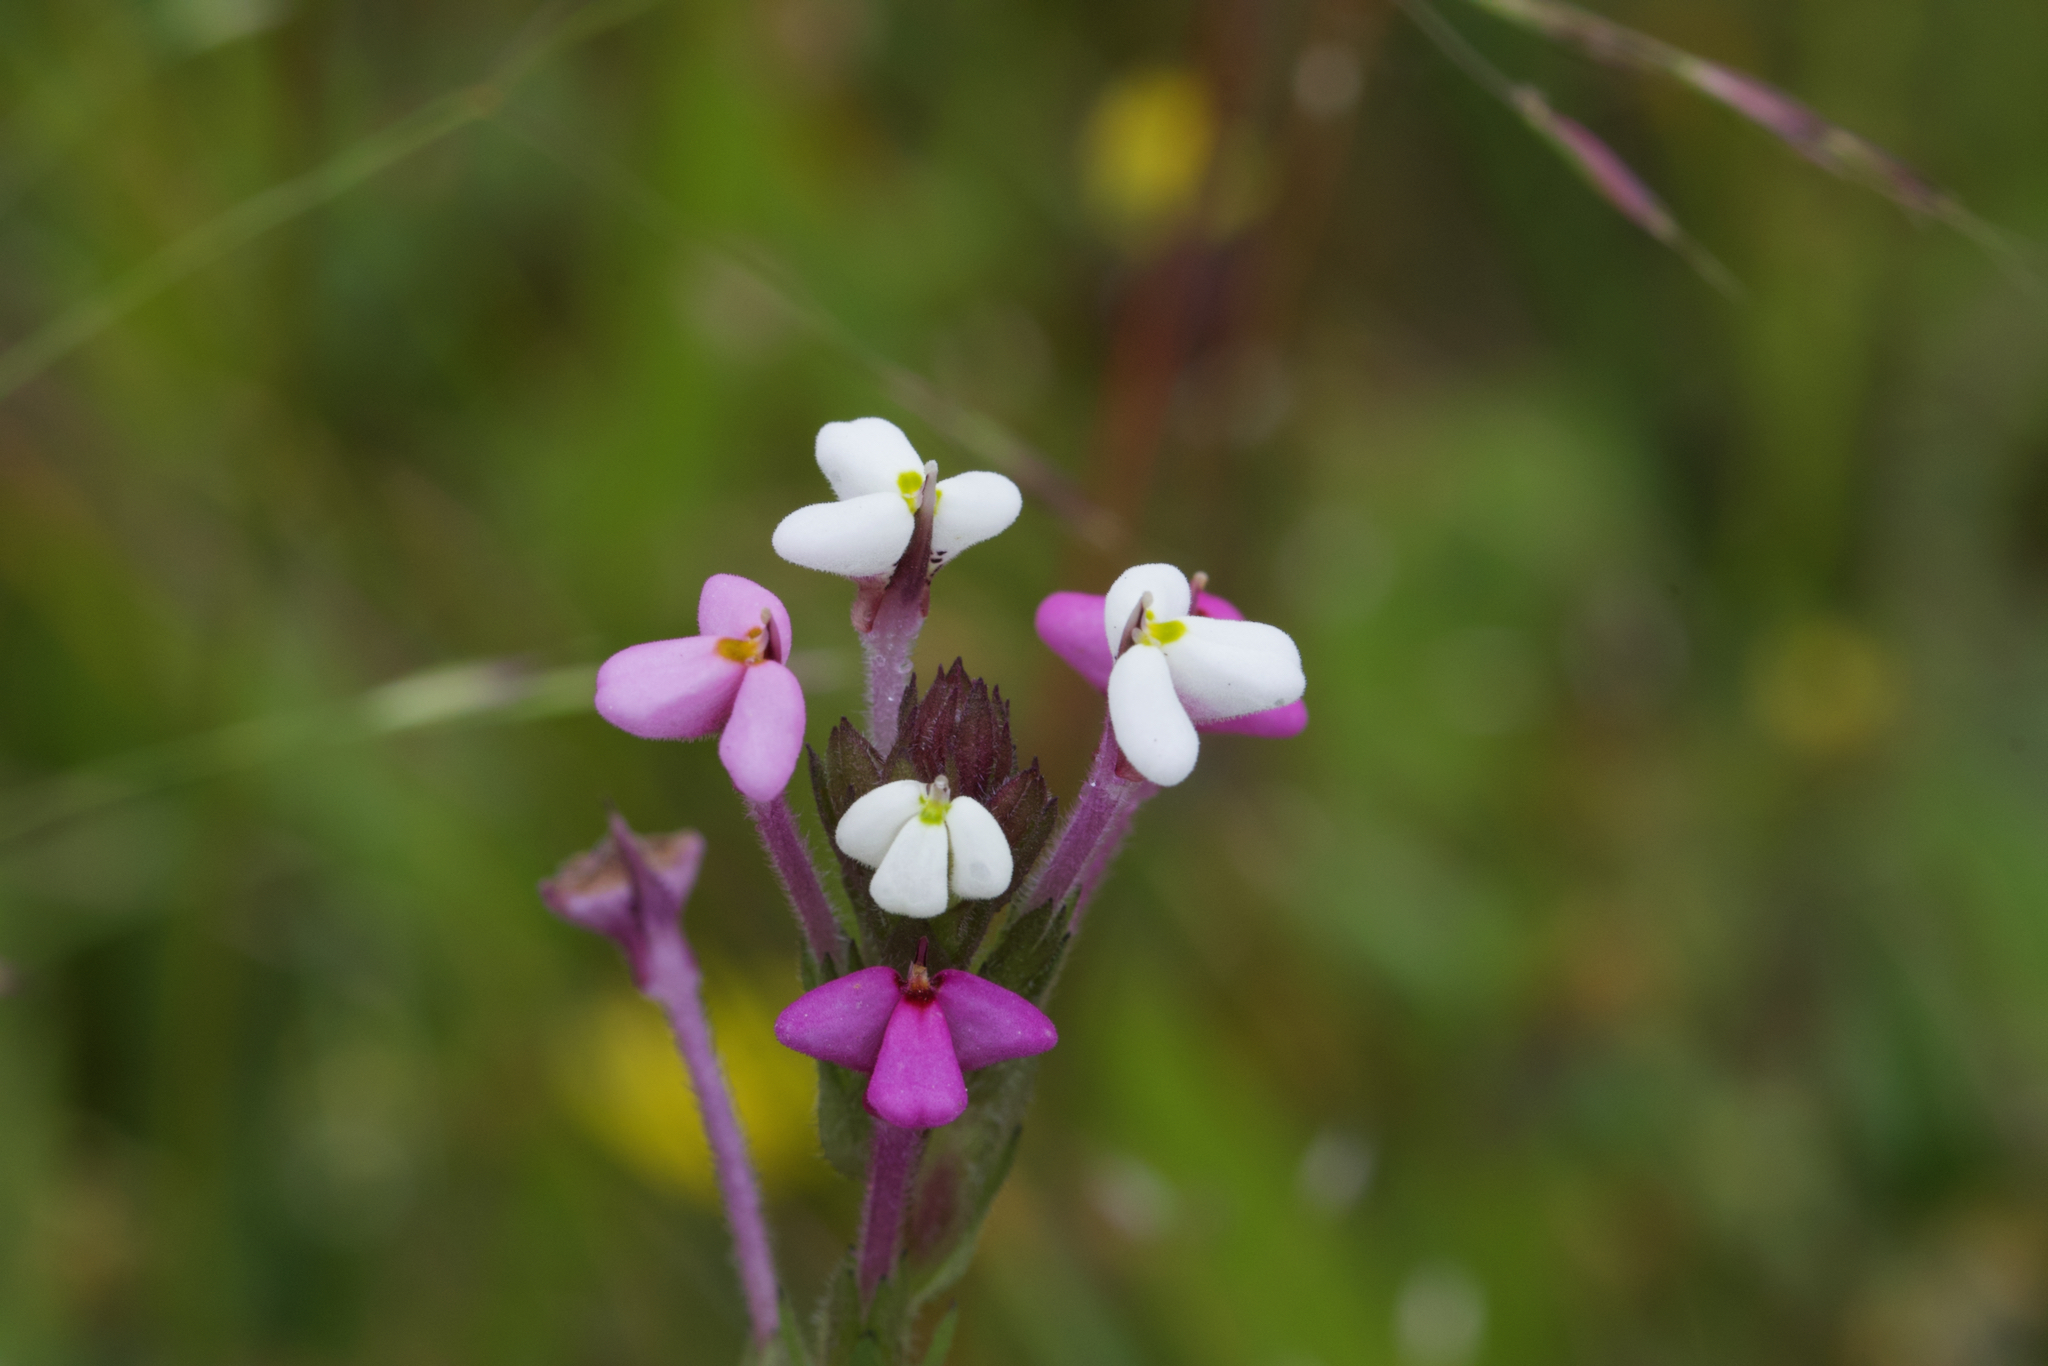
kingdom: Plantae
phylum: Tracheophyta
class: Magnoliopsida
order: Lamiales
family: Orobanchaceae
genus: Triphysaria
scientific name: Triphysaria versicolor
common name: Bearded false owl-clover
